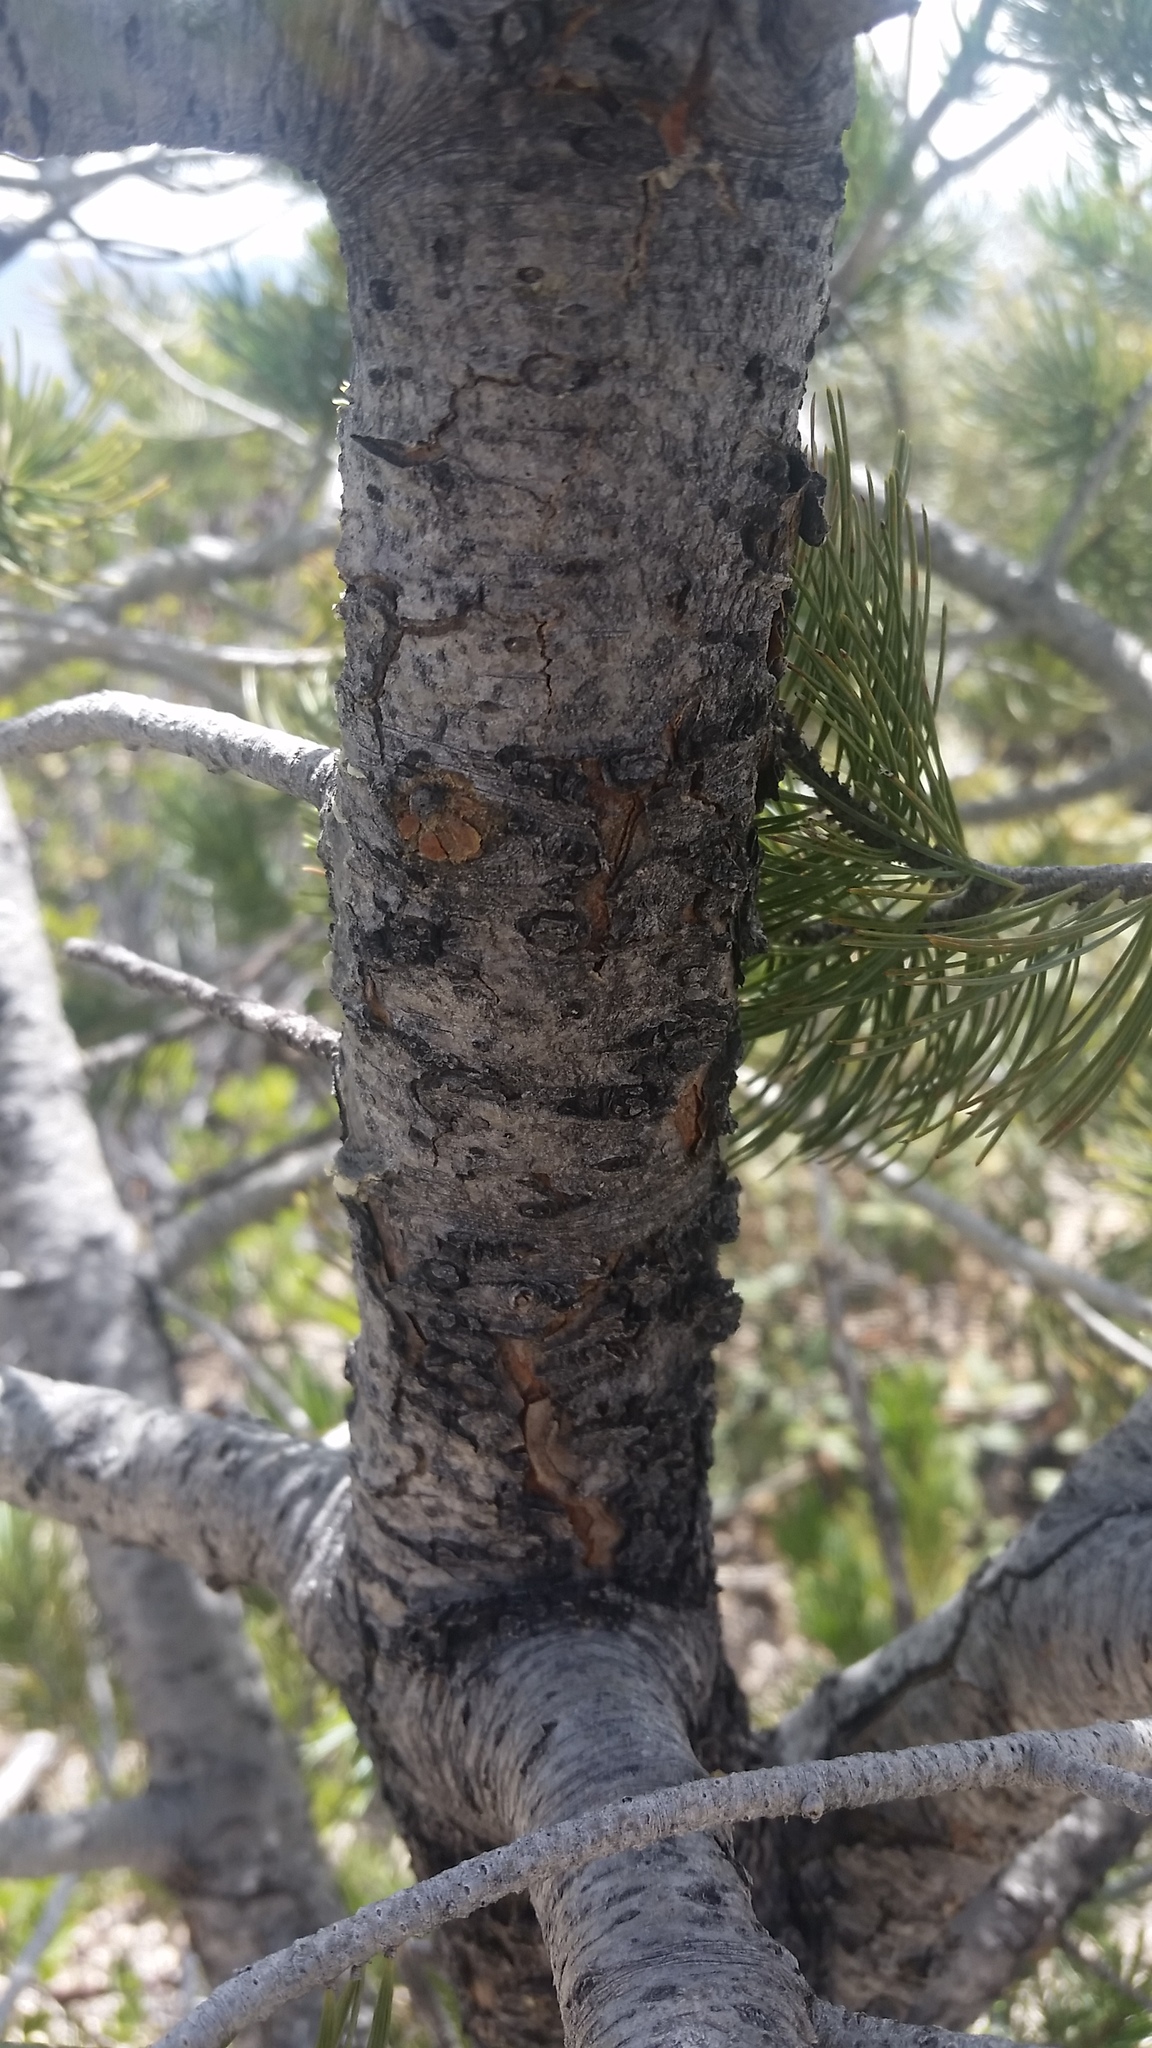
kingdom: Plantae
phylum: Tracheophyta
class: Pinopsida
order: Pinales
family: Pinaceae
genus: Pinus
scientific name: Pinus discolor
